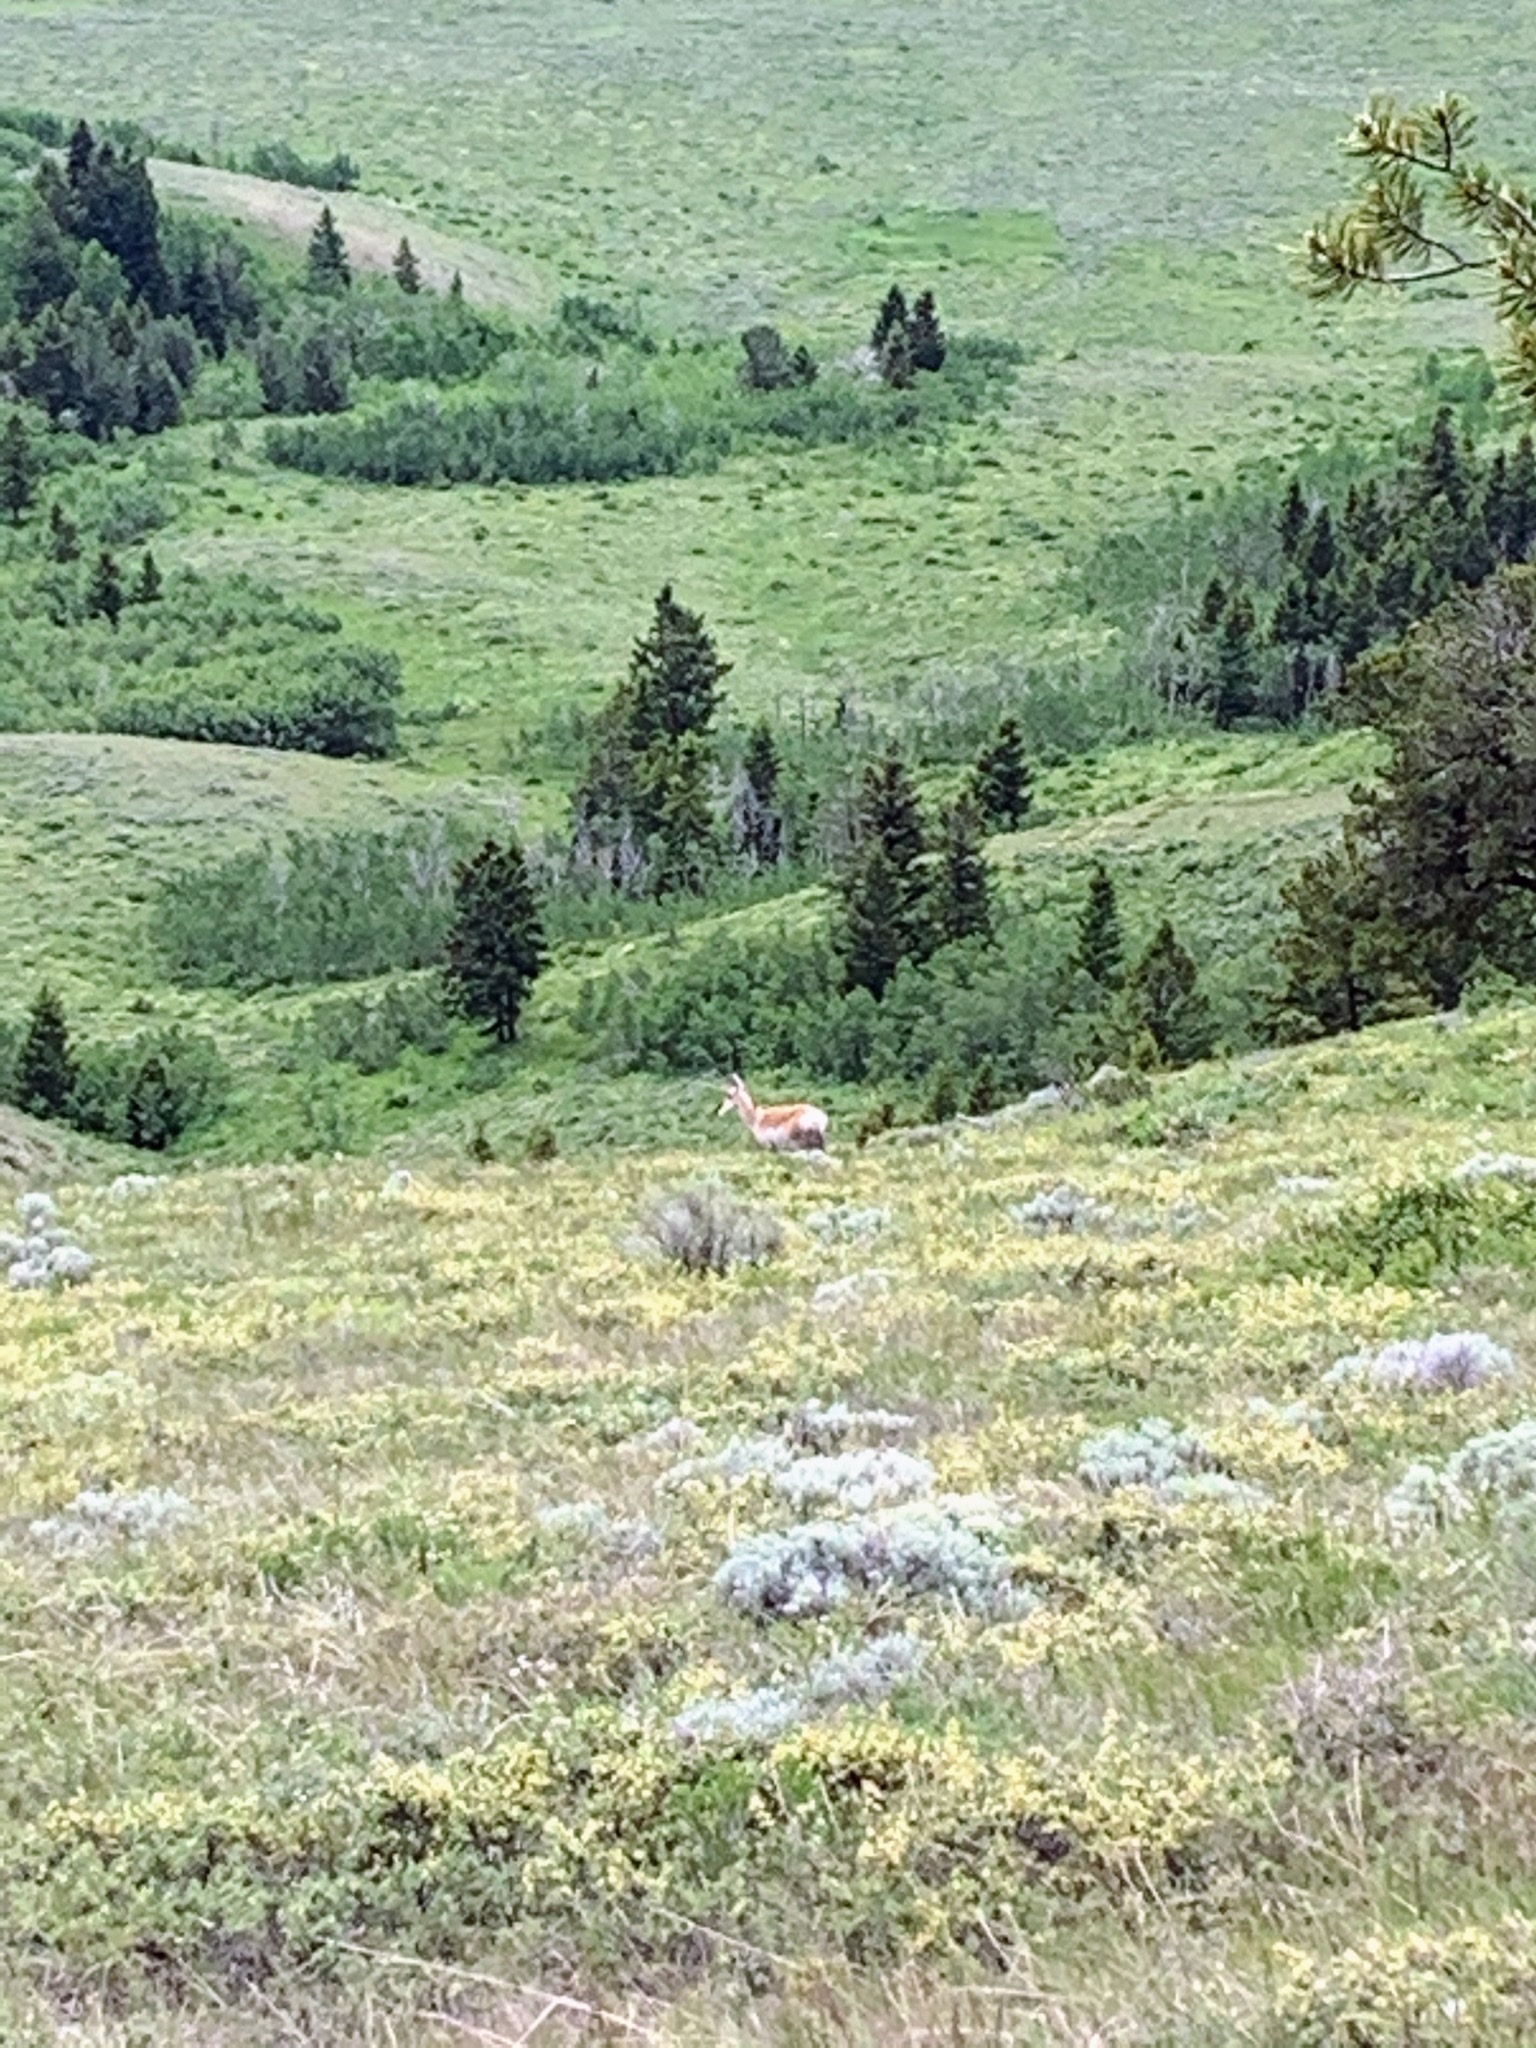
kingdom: Animalia
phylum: Chordata
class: Mammalia
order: Artiodactyla
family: Antilocapridae
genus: Antilocapra
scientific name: Antilocapra americana
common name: Pronghorn
